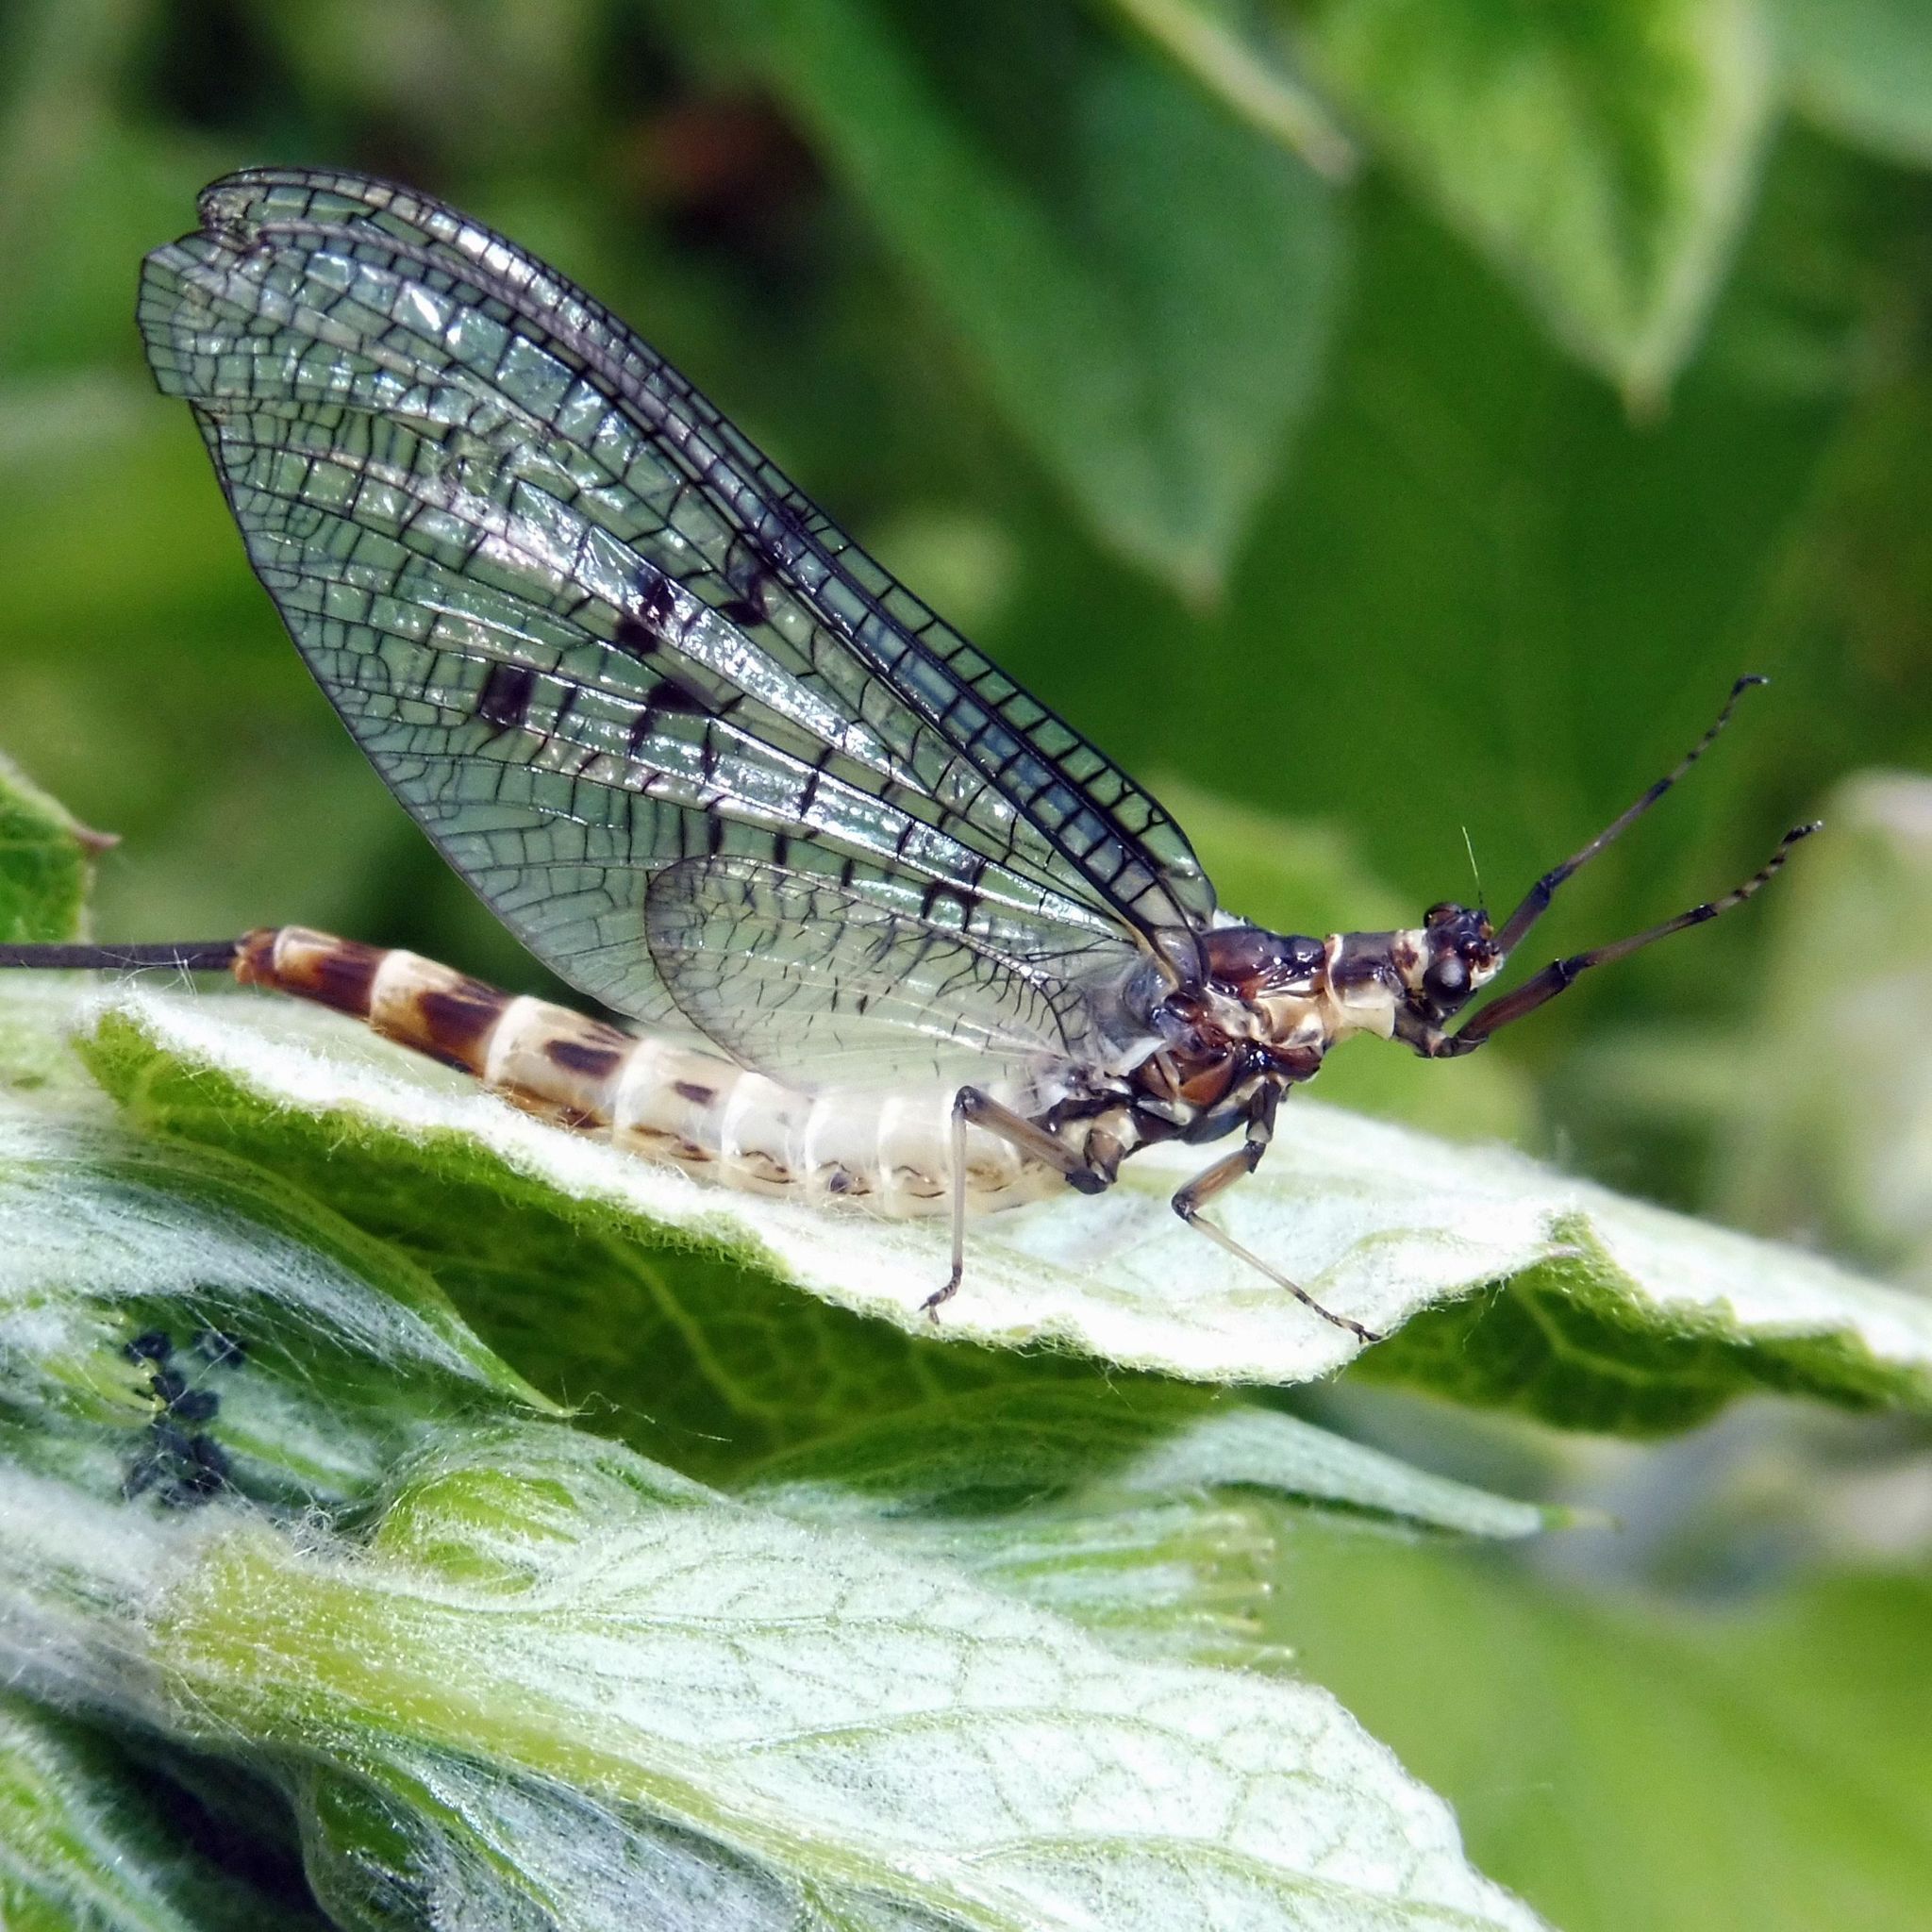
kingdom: Animalia
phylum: Arthropoda
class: Insecta
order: Ephemeroptera
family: Ephemeridae
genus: Ephemera
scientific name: Ephemera danica
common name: Green dun
